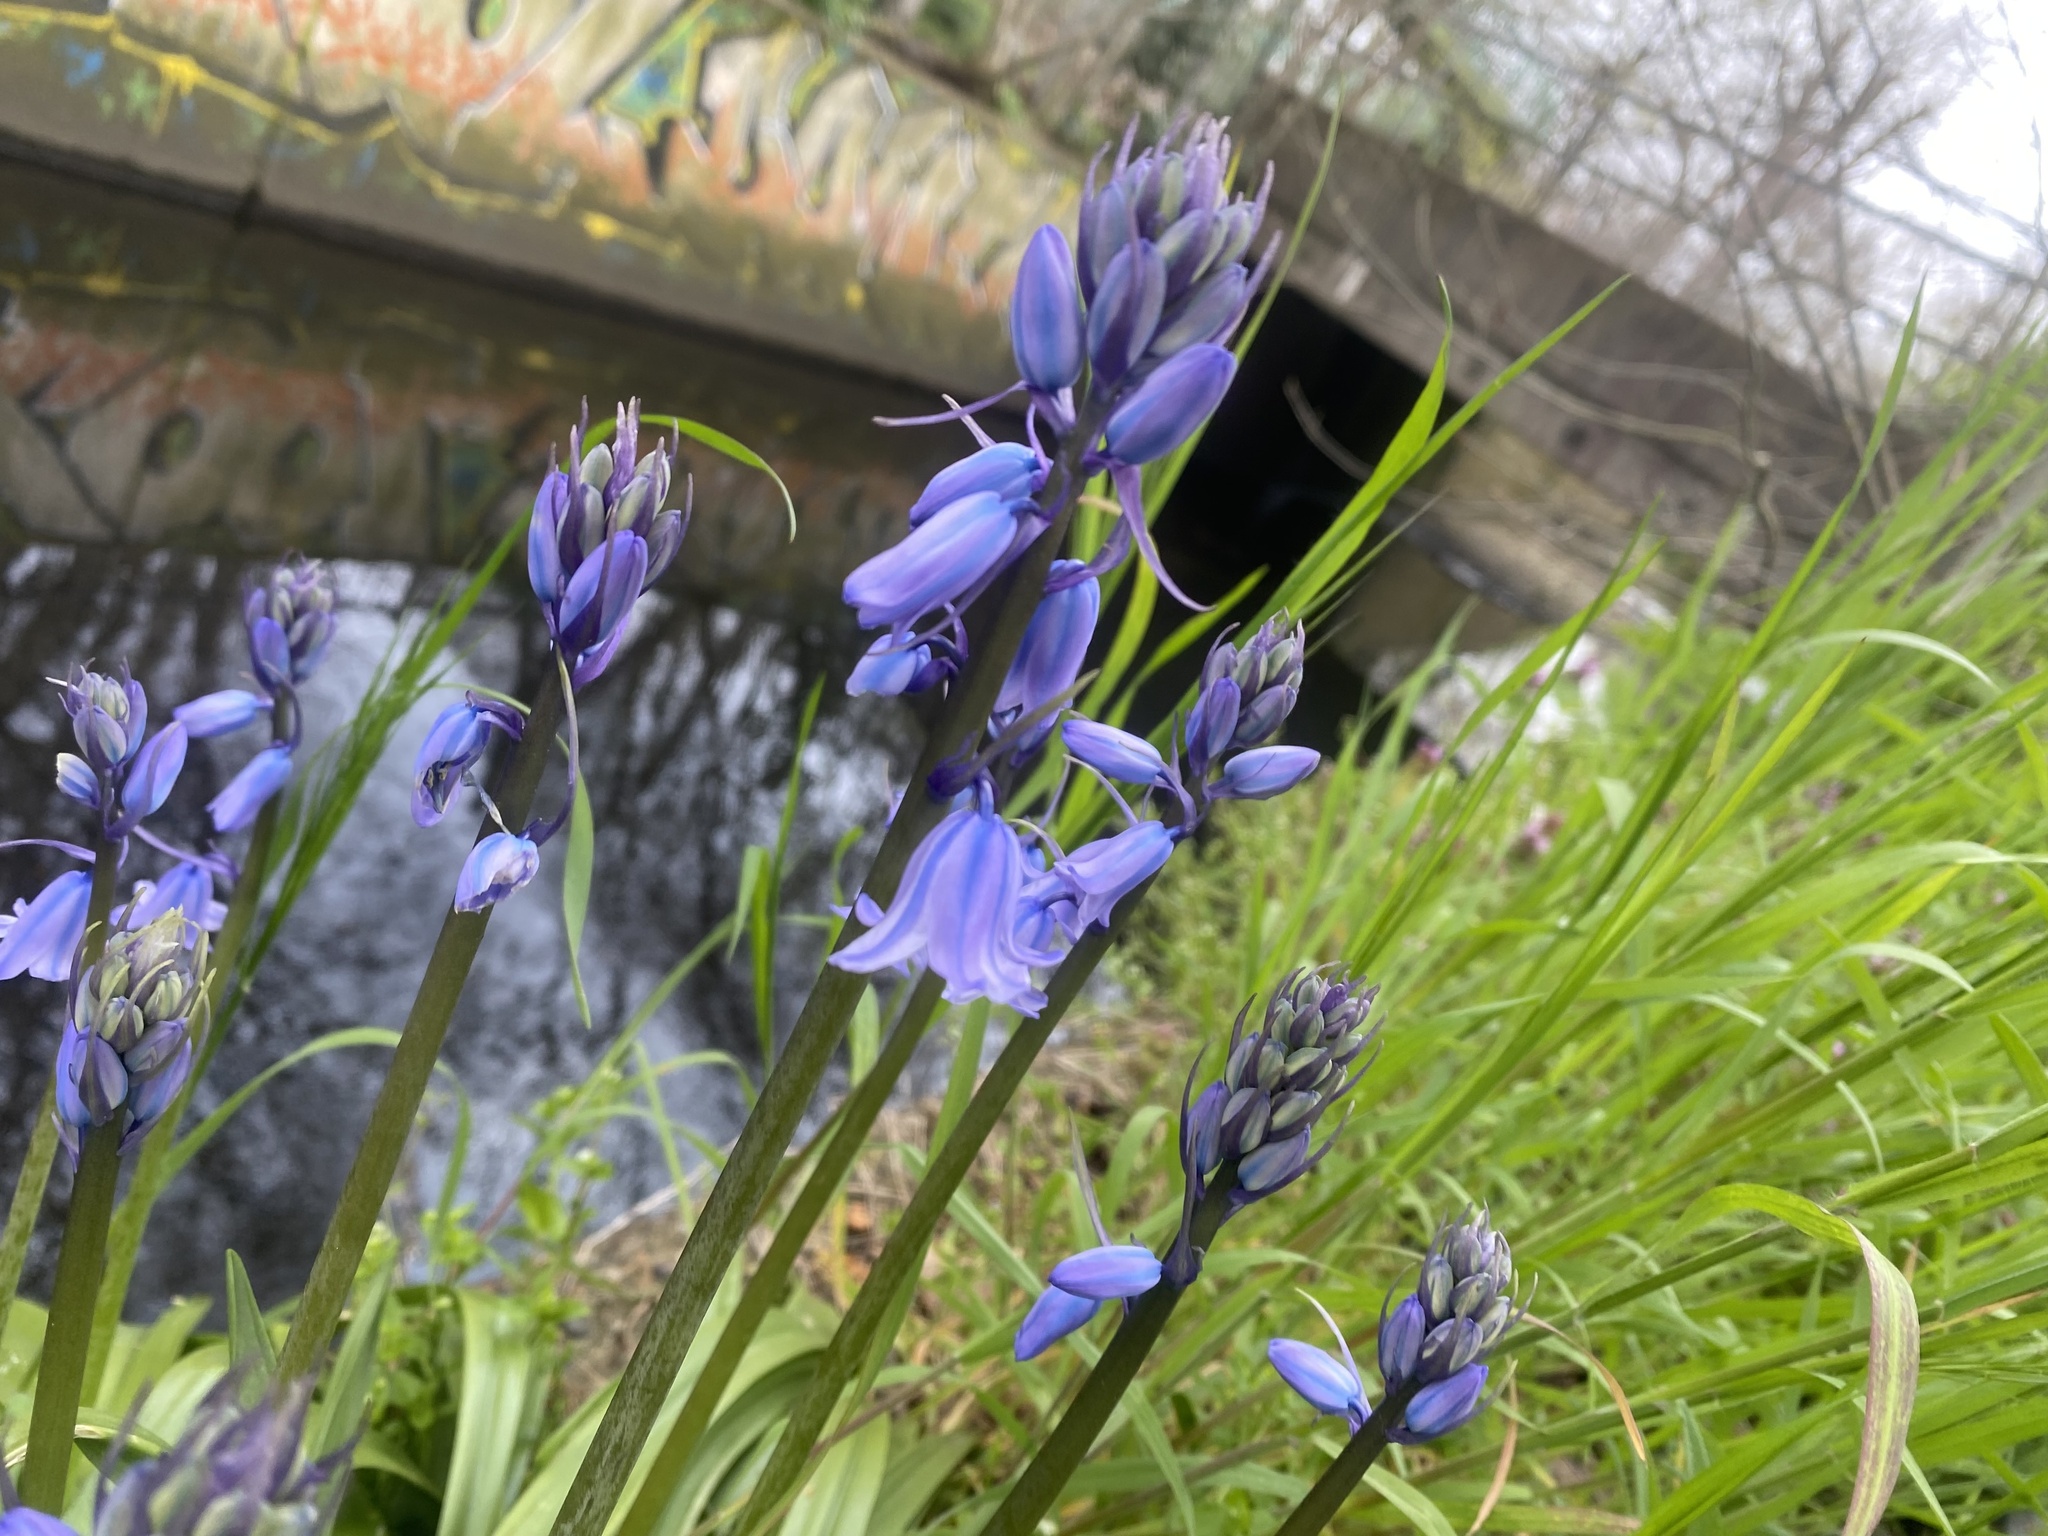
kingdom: Plantae
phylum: Tracheophyta
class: Liliopsida
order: Asparagales
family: Asparagaceae
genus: Hyacinthoides
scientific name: Hyacinthoides hispanica
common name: Spanish bluebell
